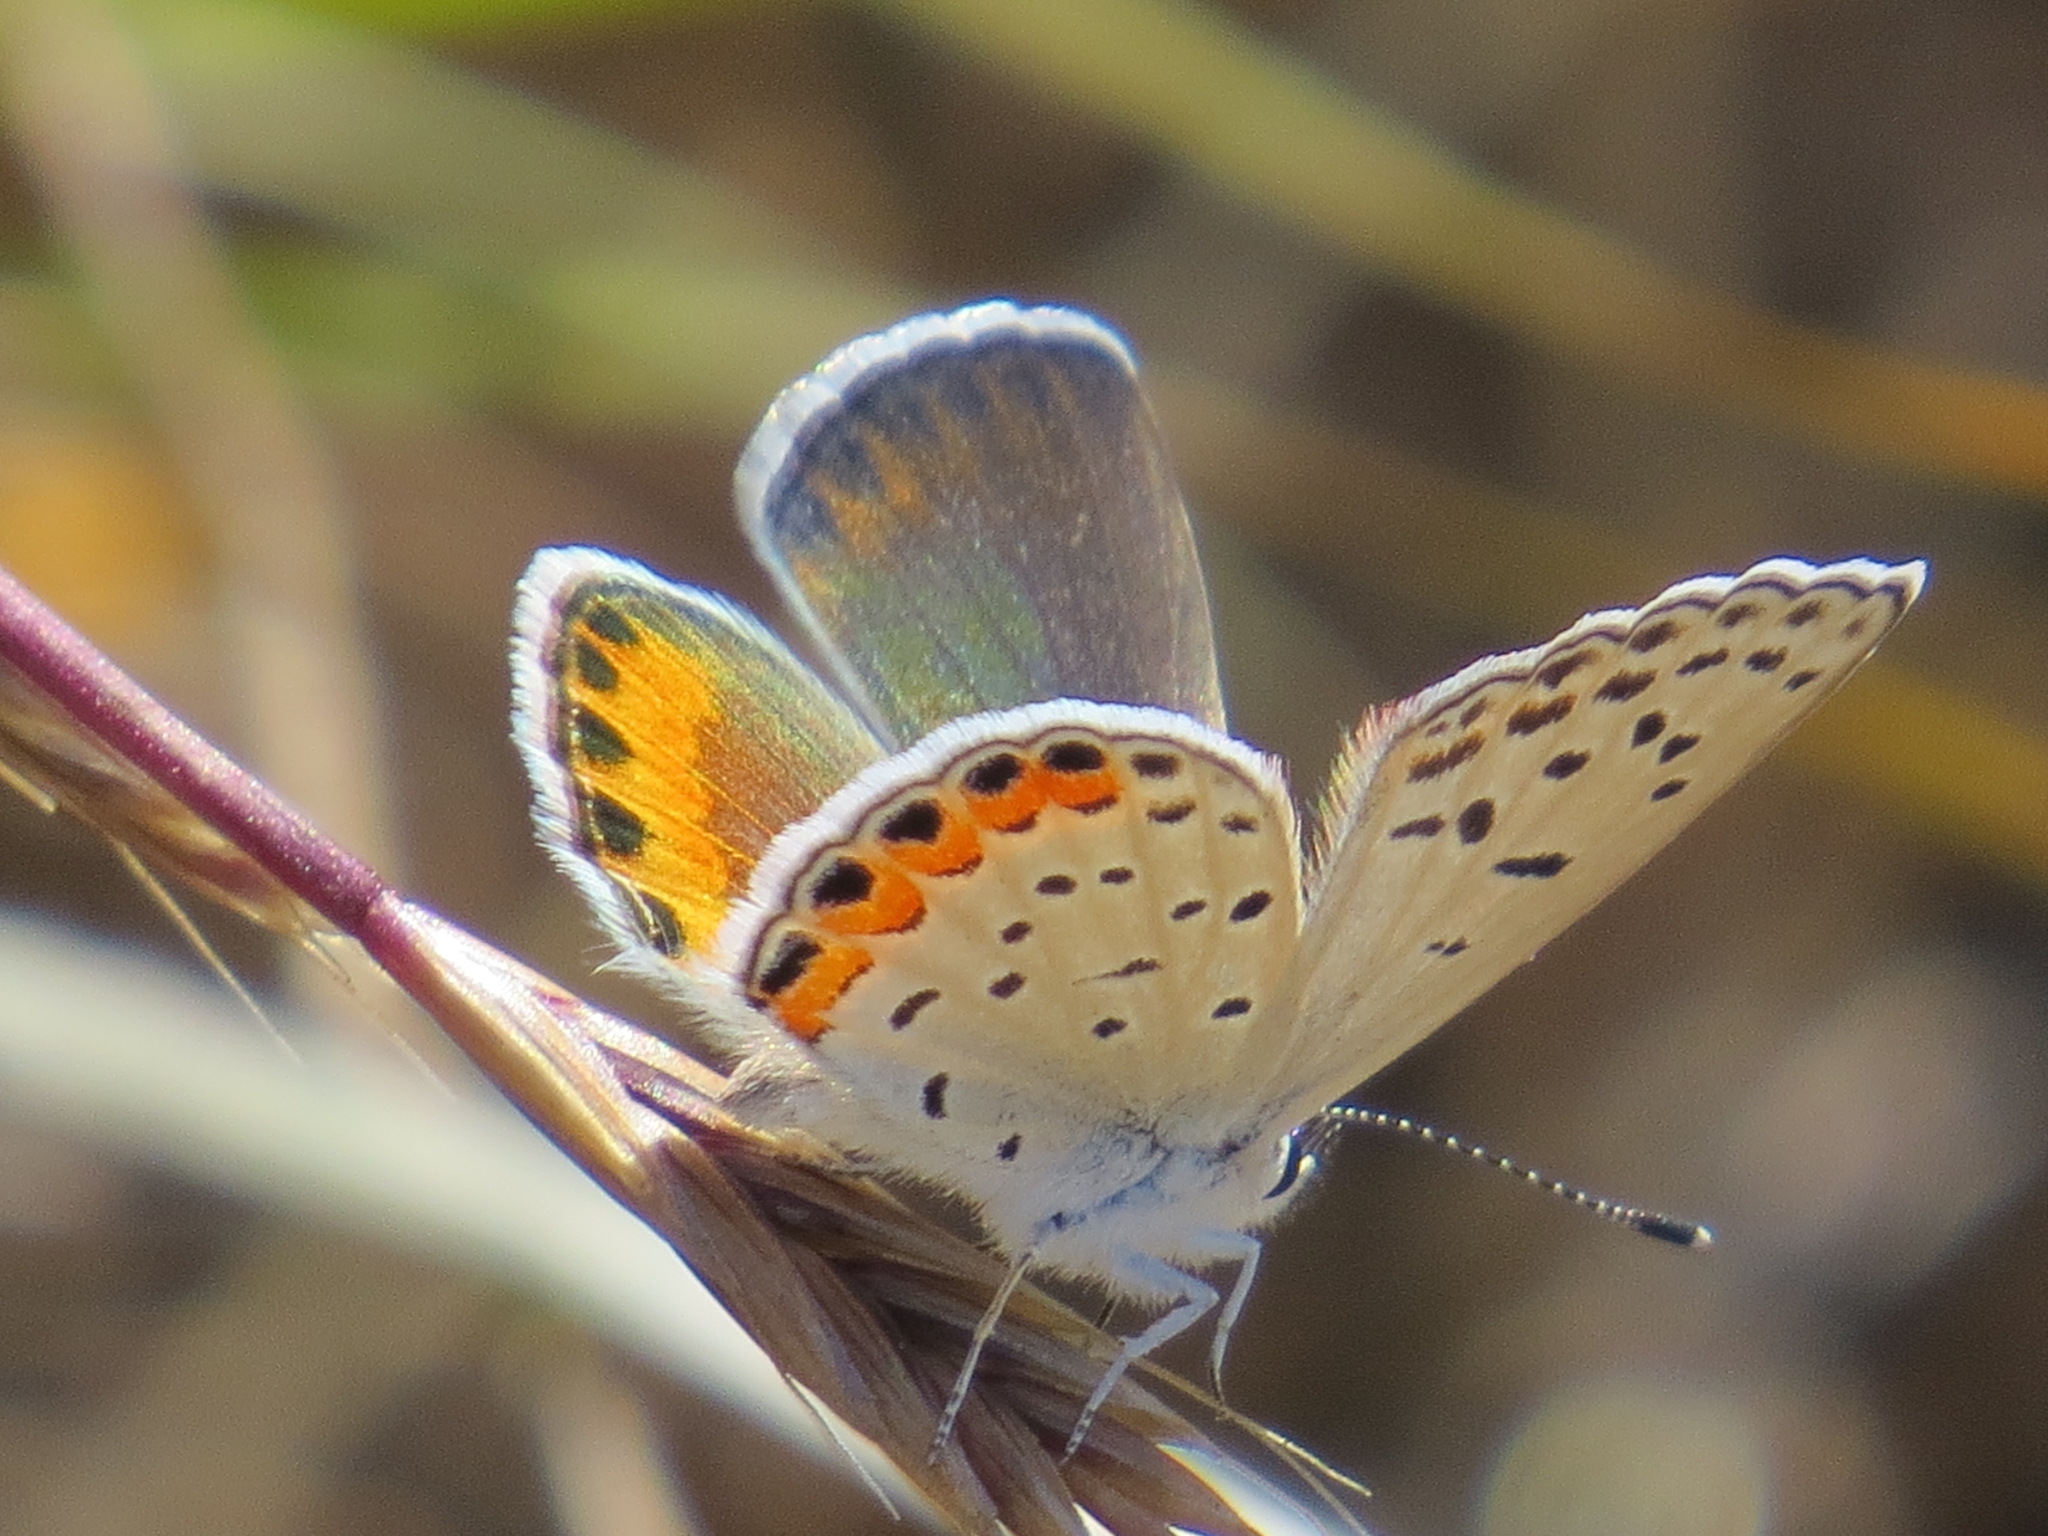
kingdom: Animalia
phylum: Arthropoda
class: Insecta
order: Lepidoptera
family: Lycaenidae
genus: Icaricia
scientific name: Icaricia acmon
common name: Acmon blue
